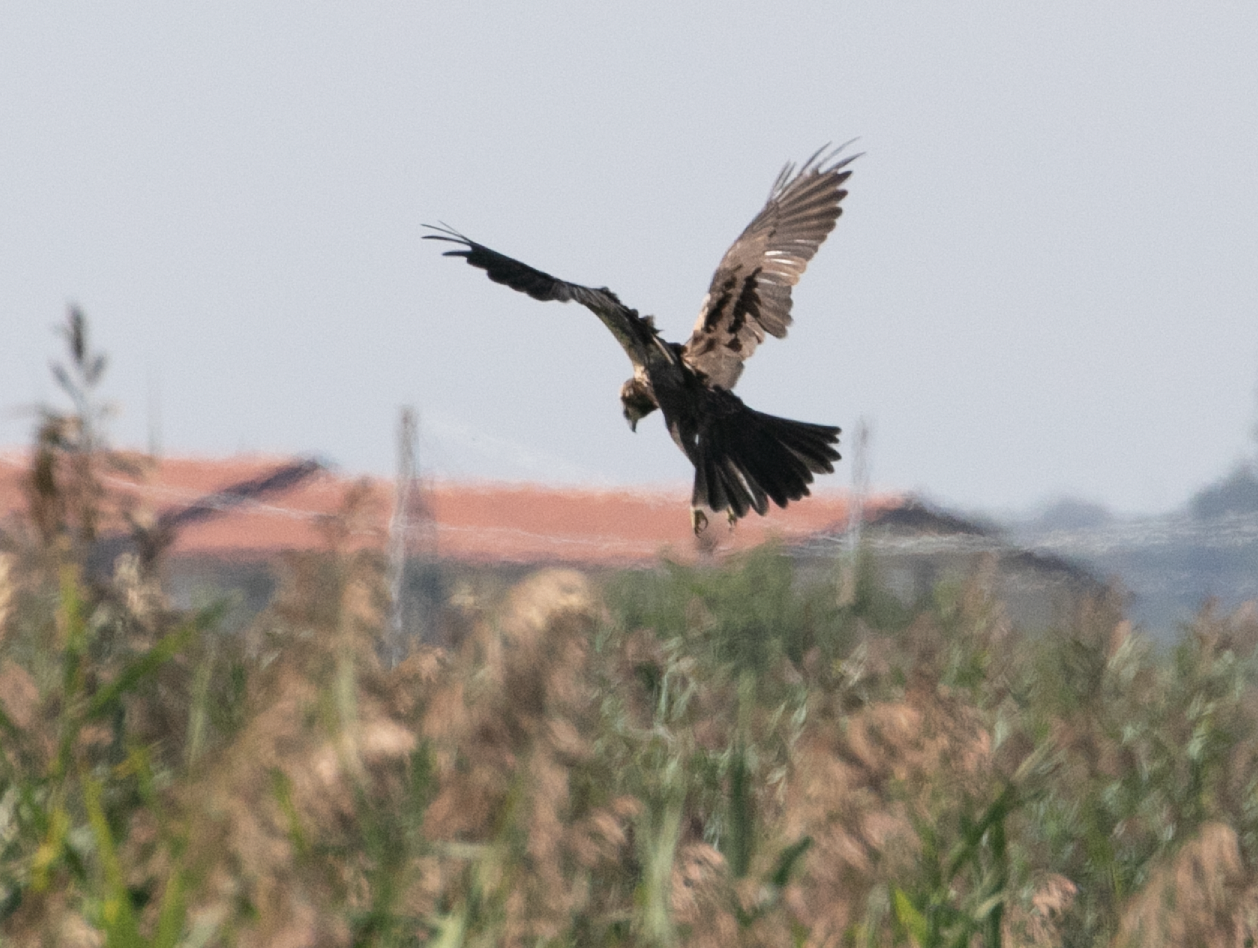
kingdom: Animalia
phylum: Chordata
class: Aves
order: Accipitriformes
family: Accipitridae
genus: Circus
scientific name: Circus aeruginosus
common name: Western marsh harrier
